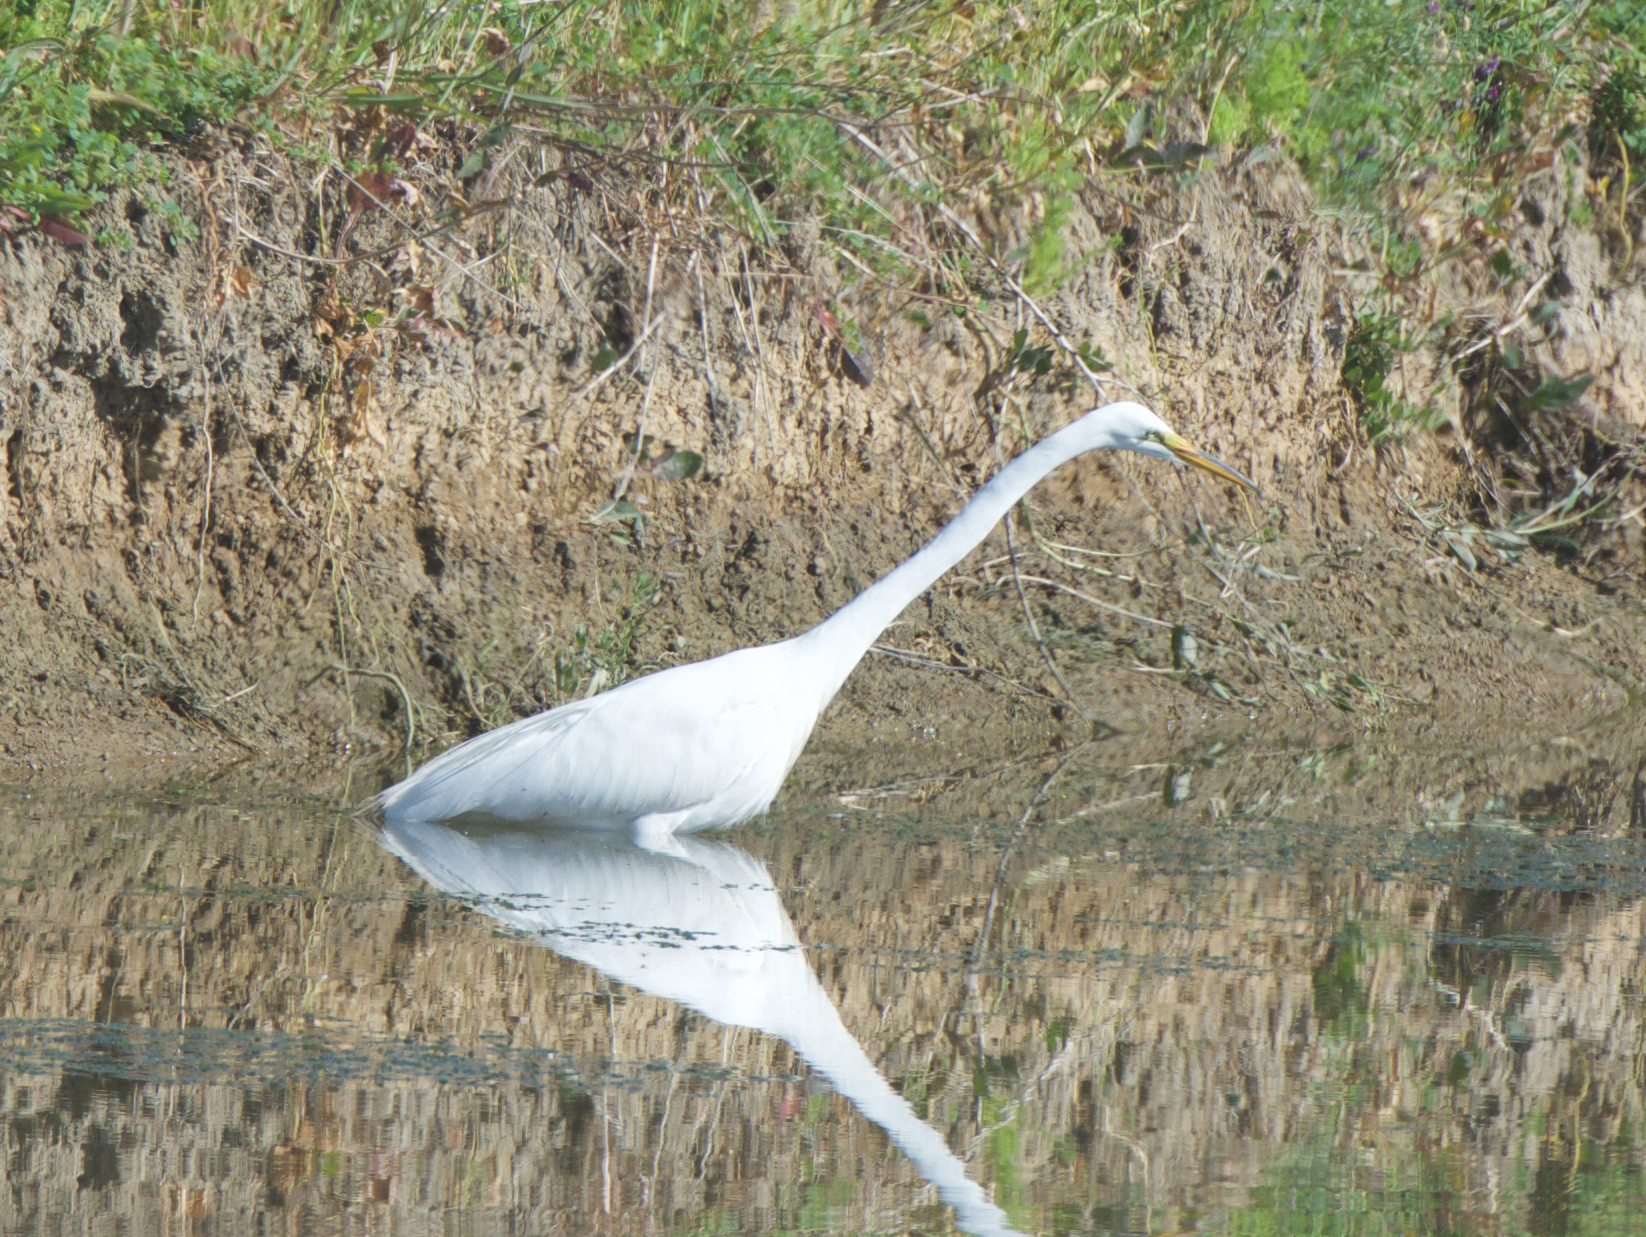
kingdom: Animalia
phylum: Chordata
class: Aves
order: Pelecaniformes
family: Ardeidae
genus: Ardea
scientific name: Ardea alba
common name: Great egret
